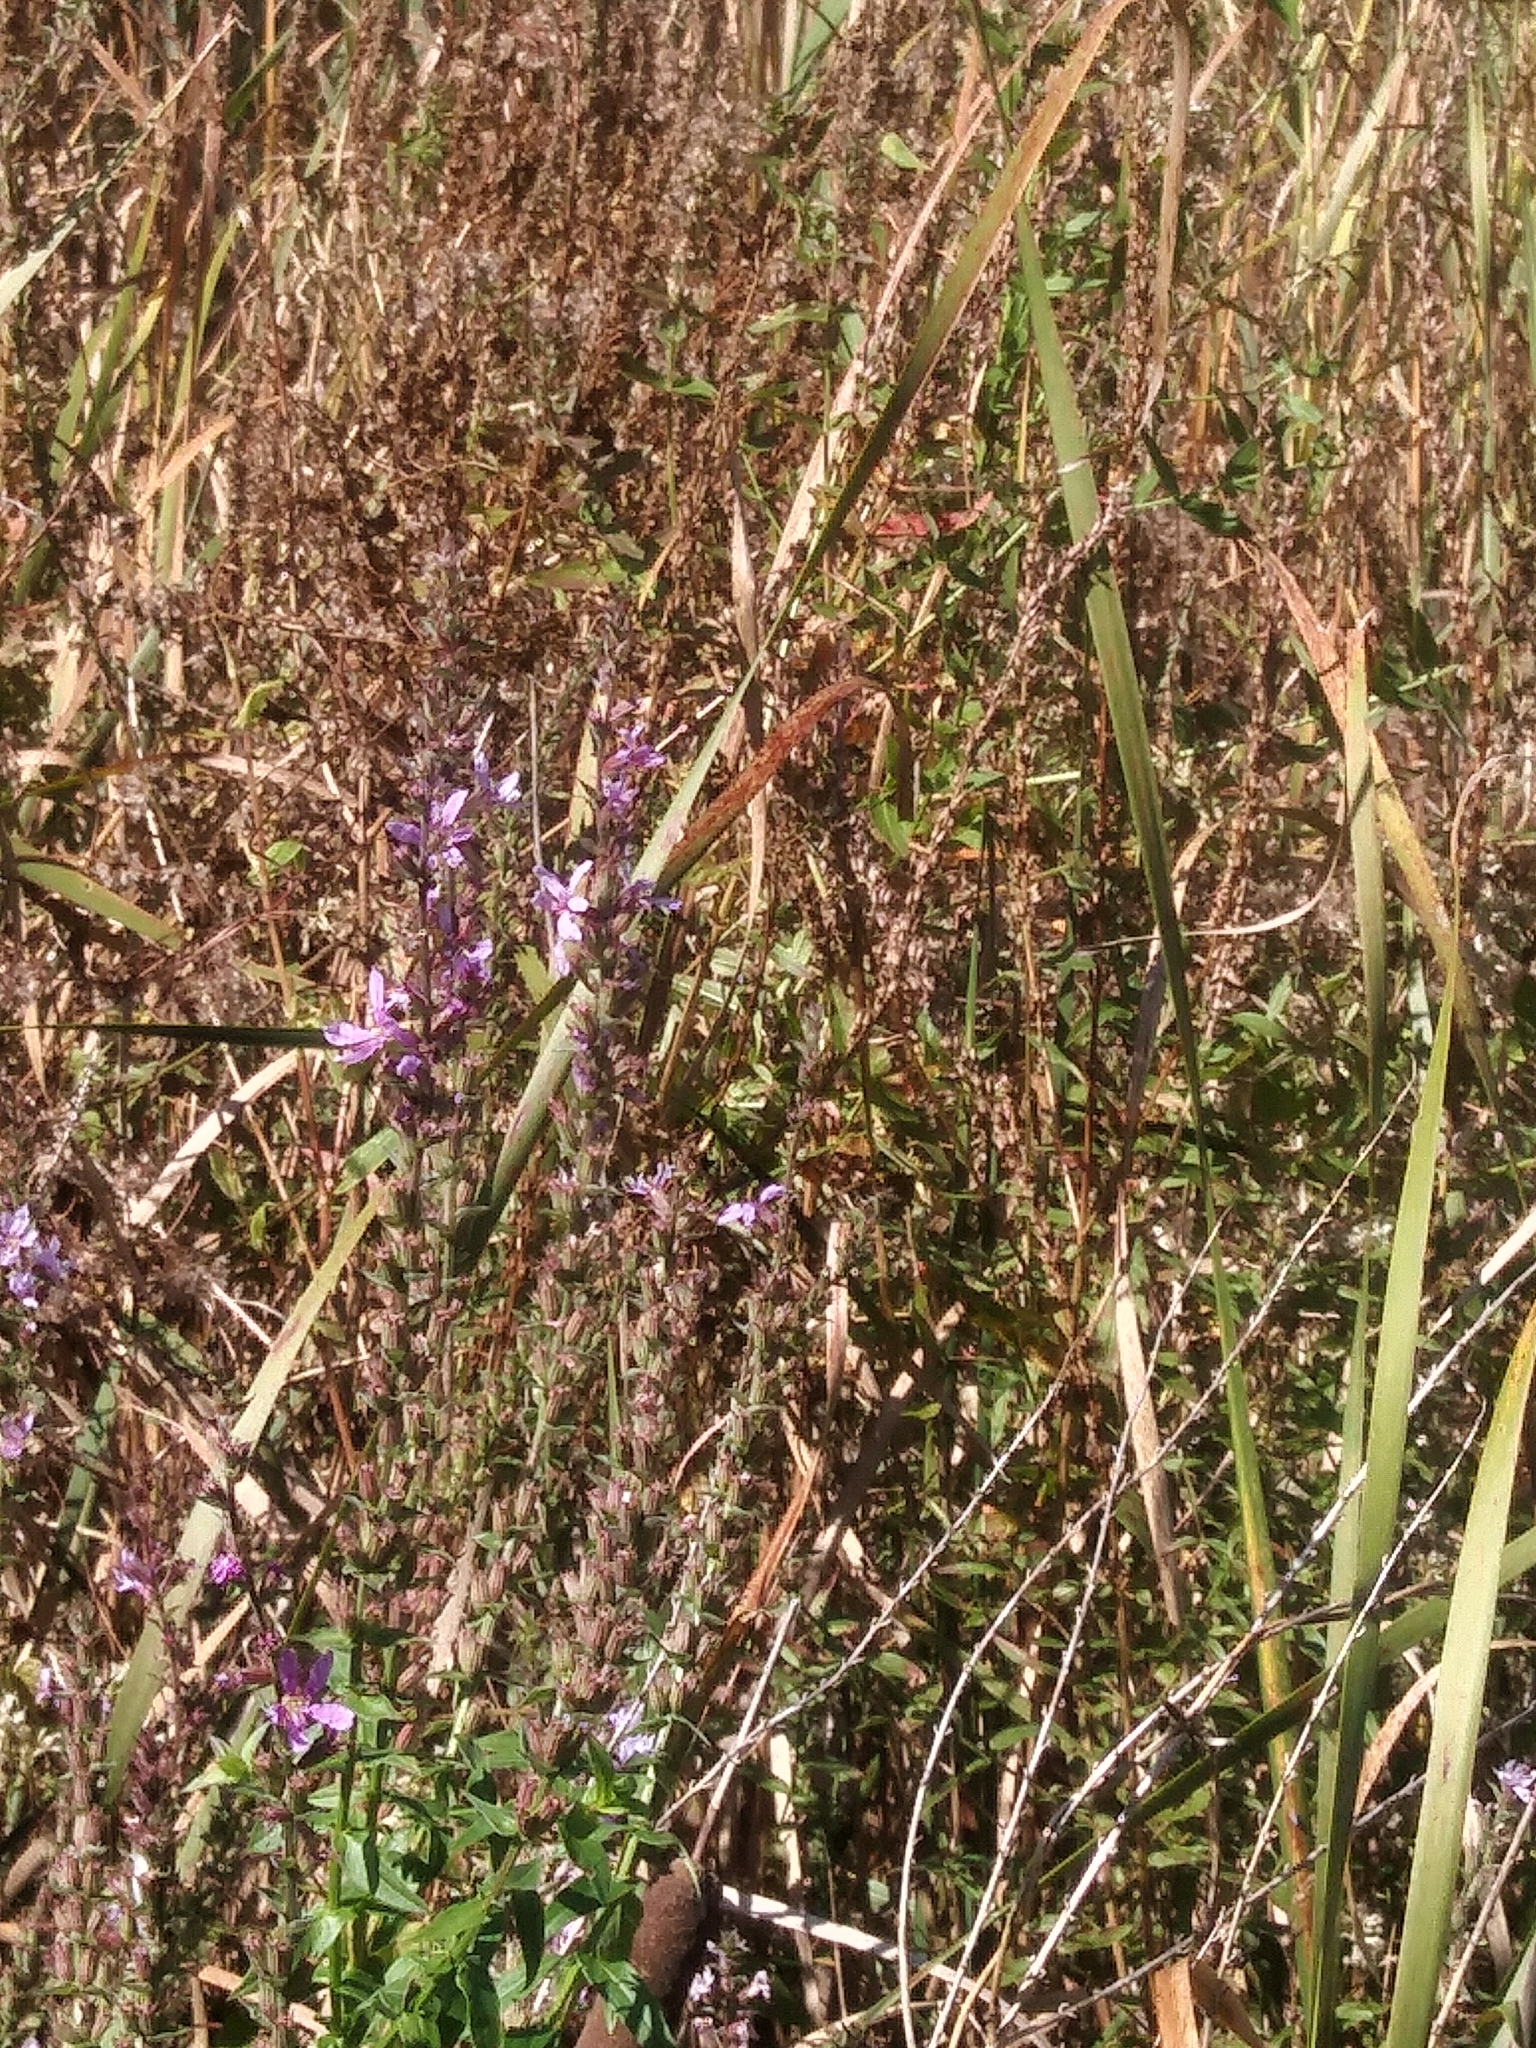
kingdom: Plantae
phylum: Tracheophyta
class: Magnoliopsida
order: Myrtales
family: Lythraceae
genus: Lythrum
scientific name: Lythrum salicaria
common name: Purple loosestrife
